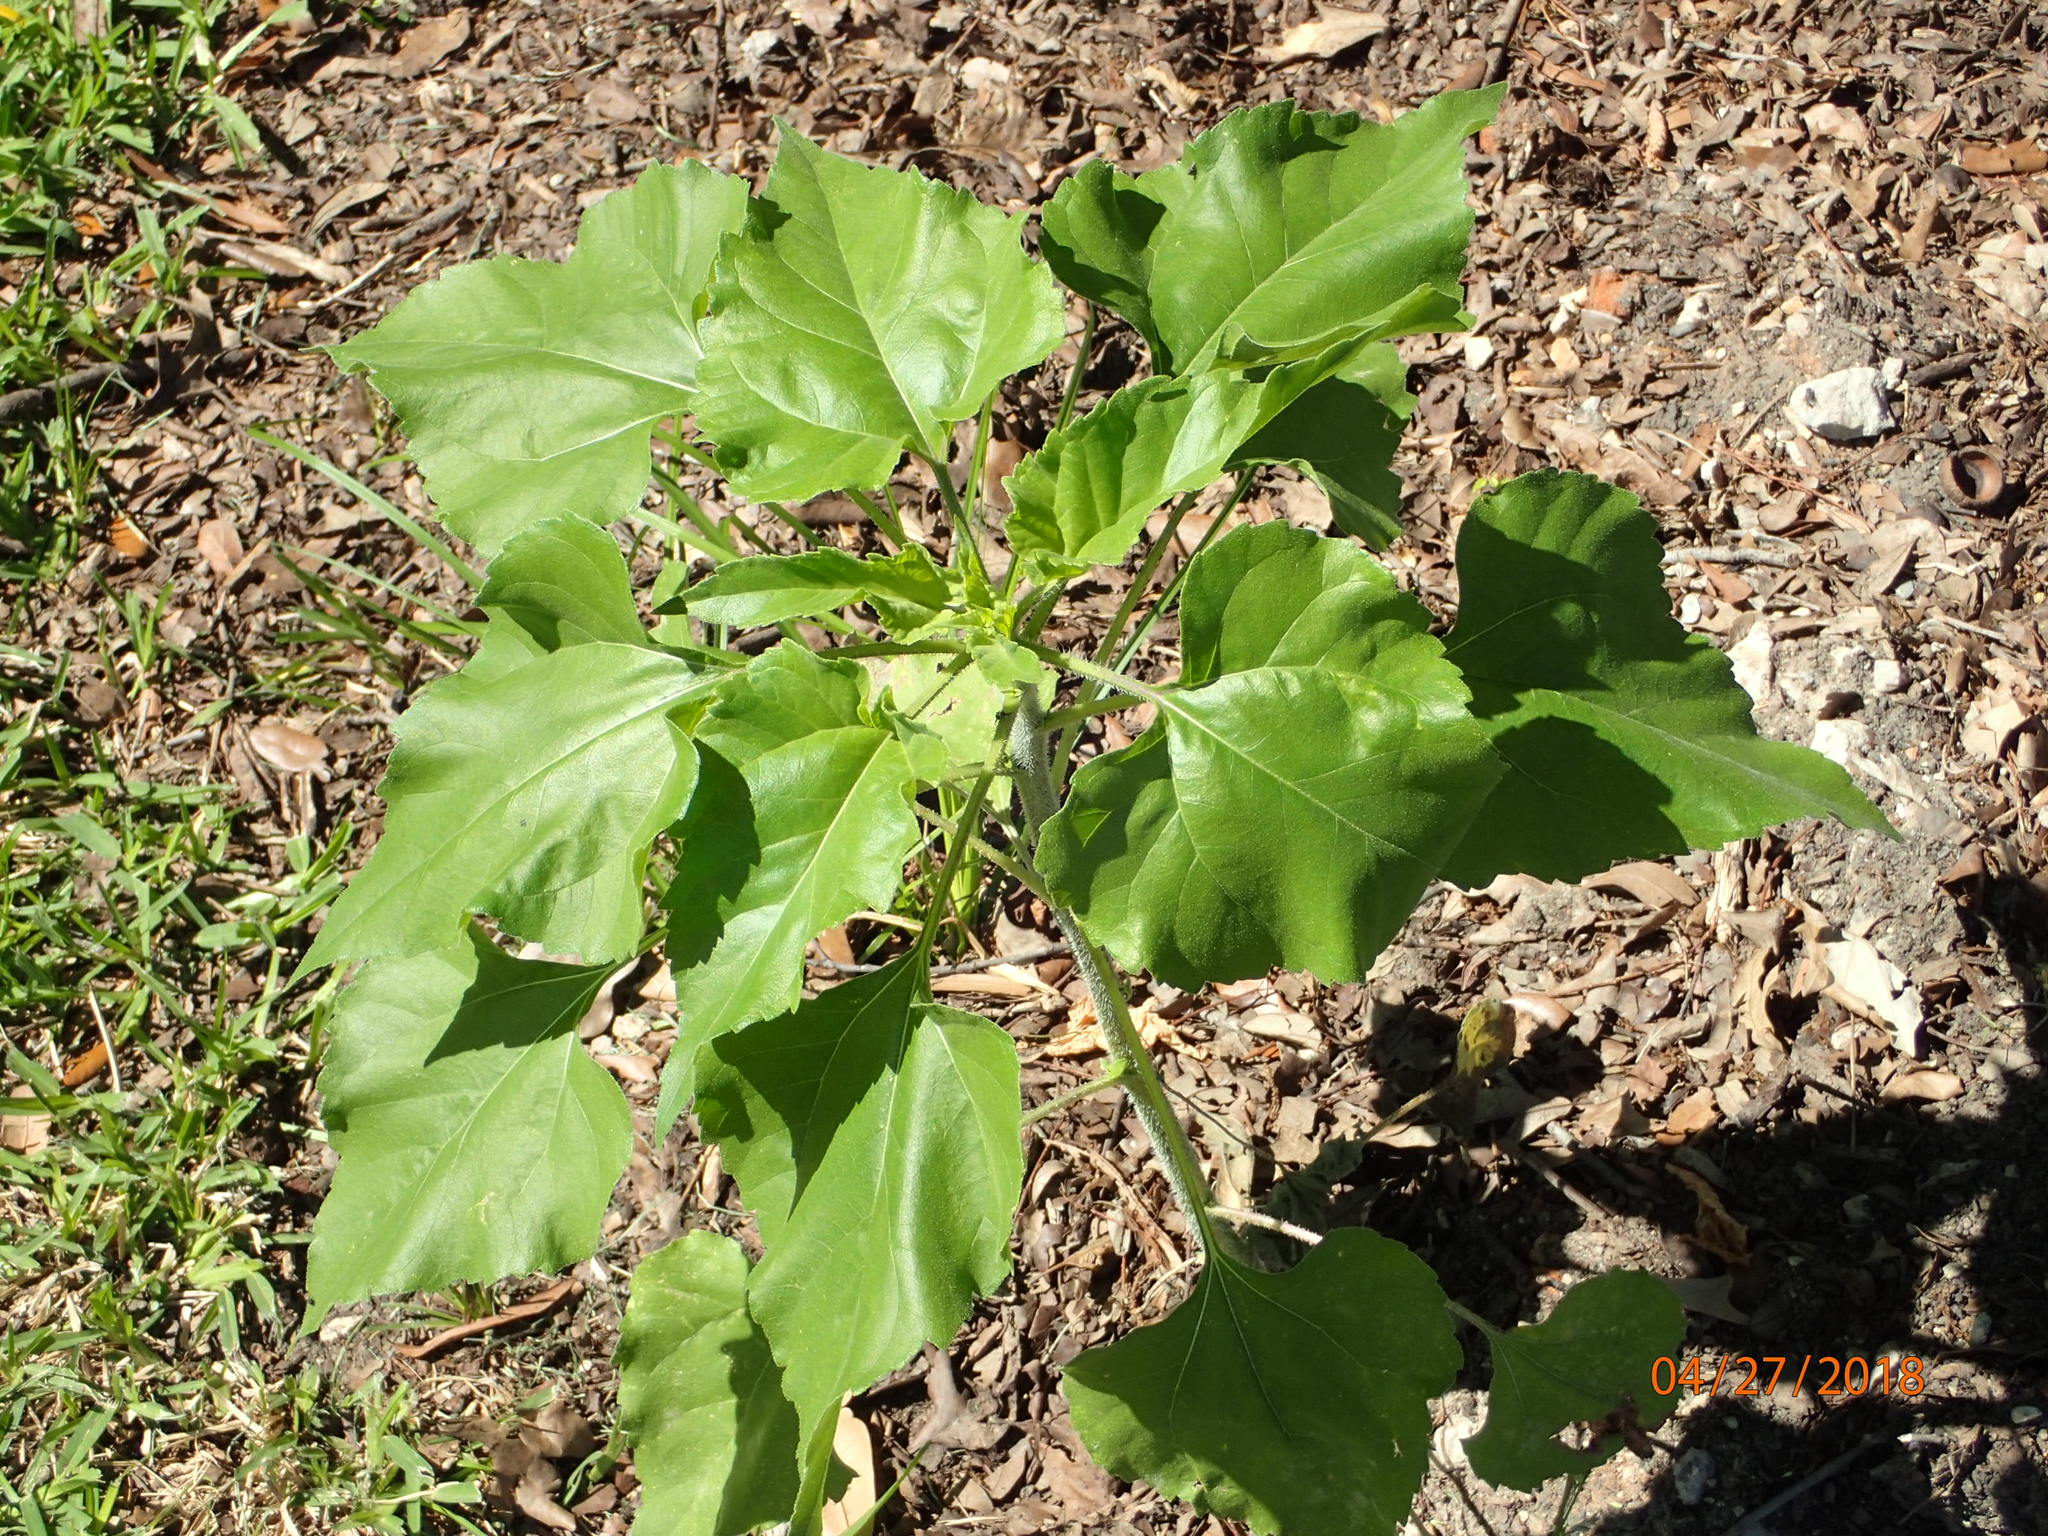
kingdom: Plantae
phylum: Tracheophyta
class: Magnoliopsida
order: Asterales
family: Asteraceae
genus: Helianthus
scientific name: Helianthus annuus
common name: Sunflower
